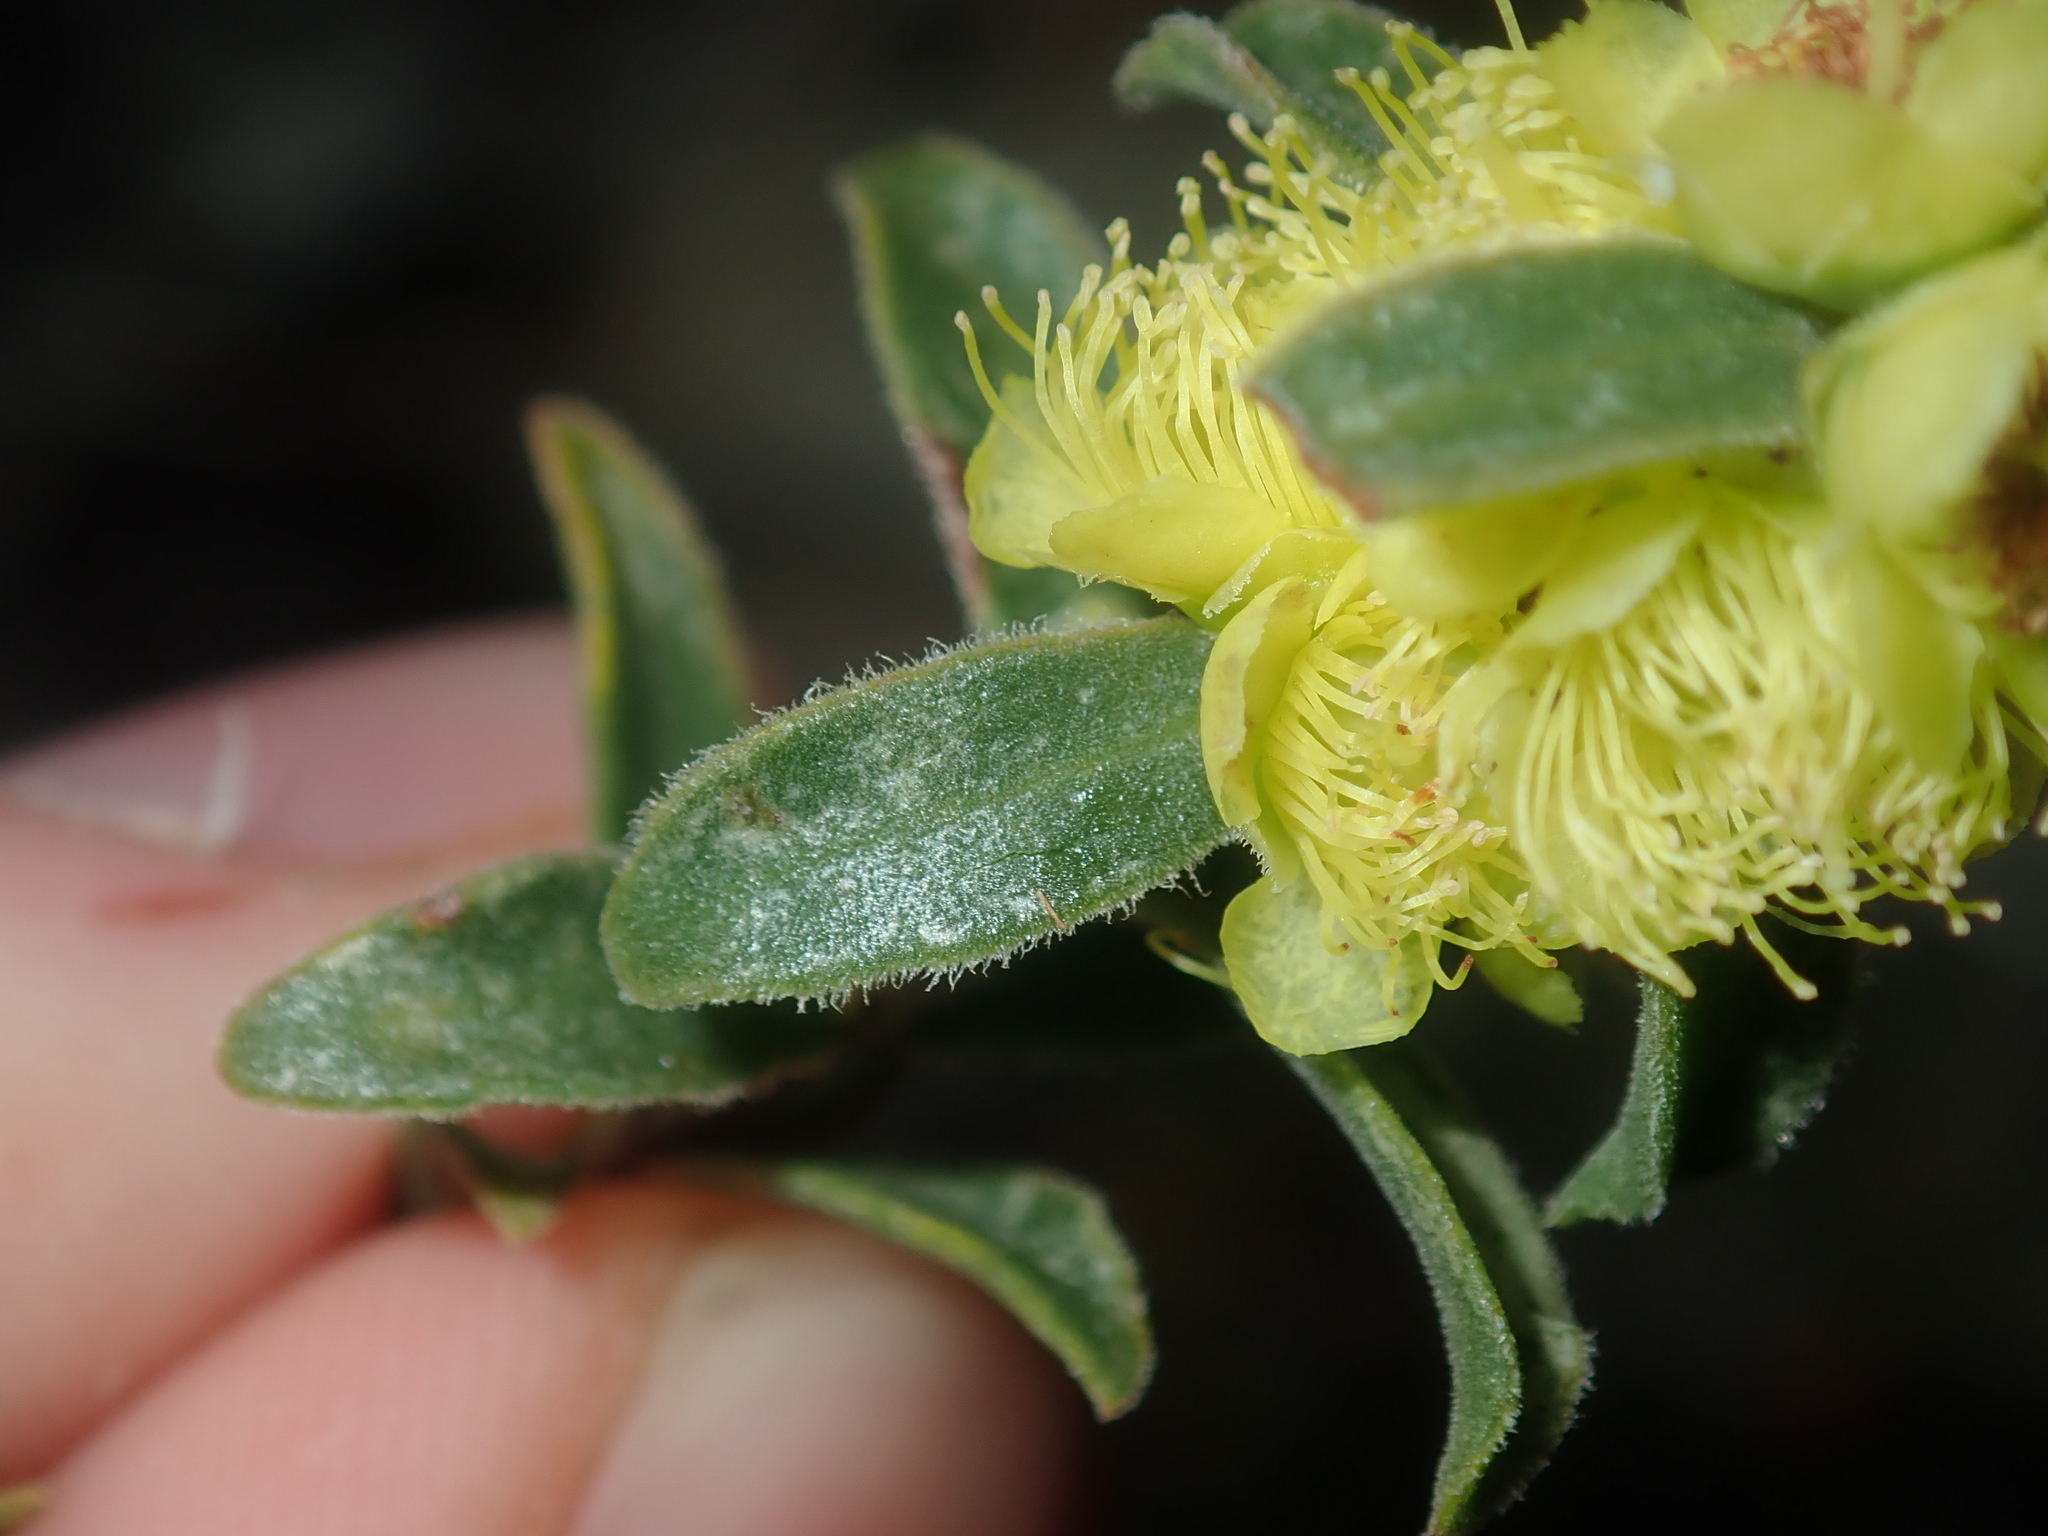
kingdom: Plantae
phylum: Tracheophyta
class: Magnoliopsida
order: Myrtales
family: Myrtaceae
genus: Hypocalymma
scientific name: Hypocalymma xanthopetalum
